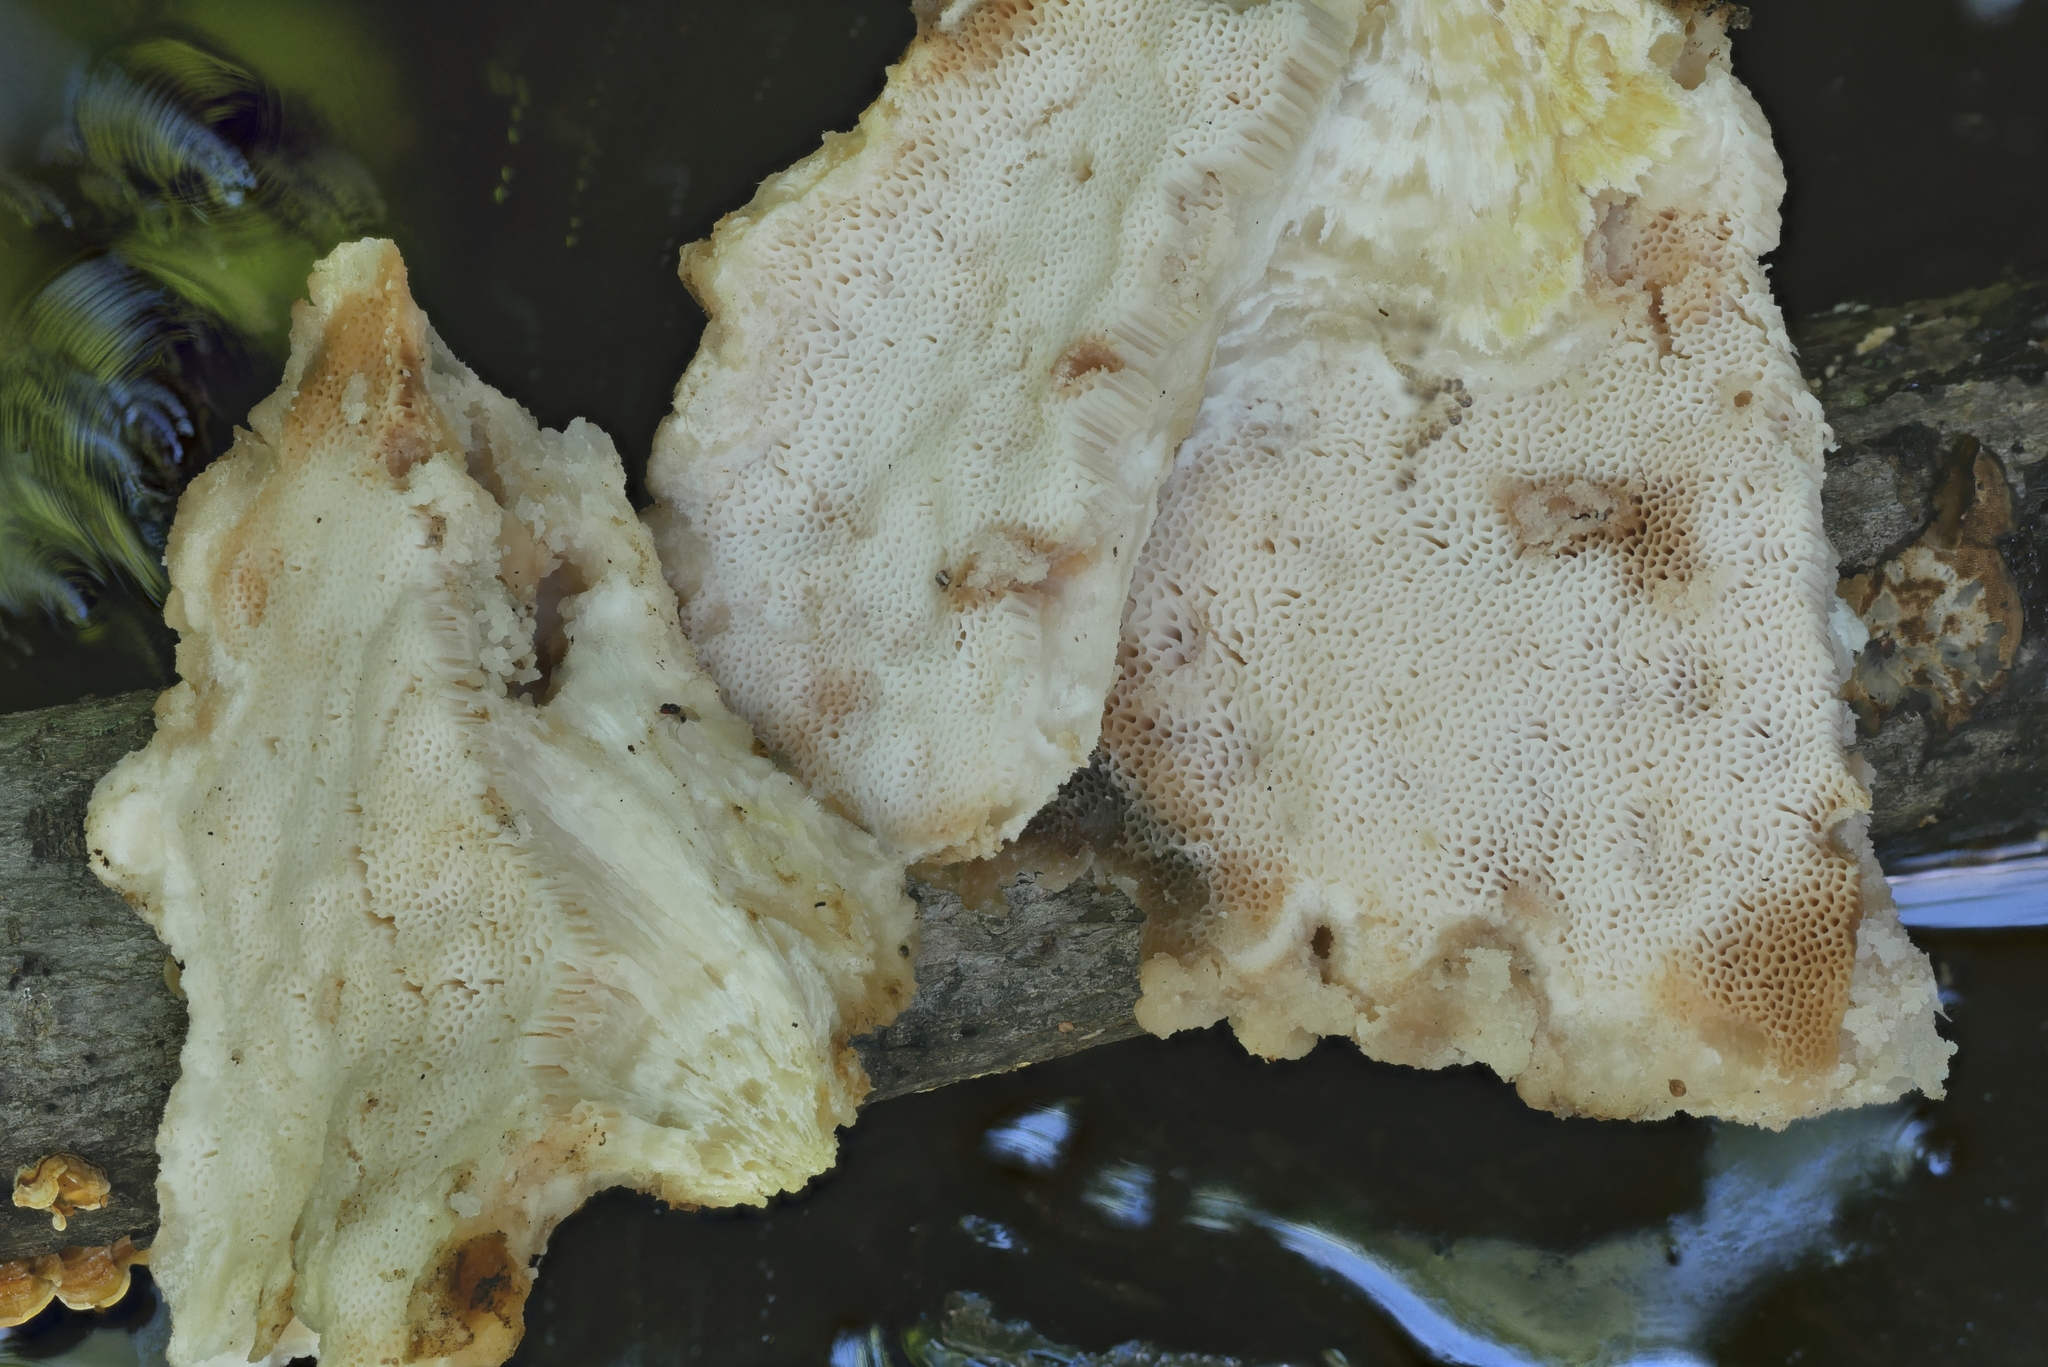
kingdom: Fungi
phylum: Basidiomycota
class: Agaricomycetes
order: Polyporales
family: Meruliaceae
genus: Pappia
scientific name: Pappia fissilis
